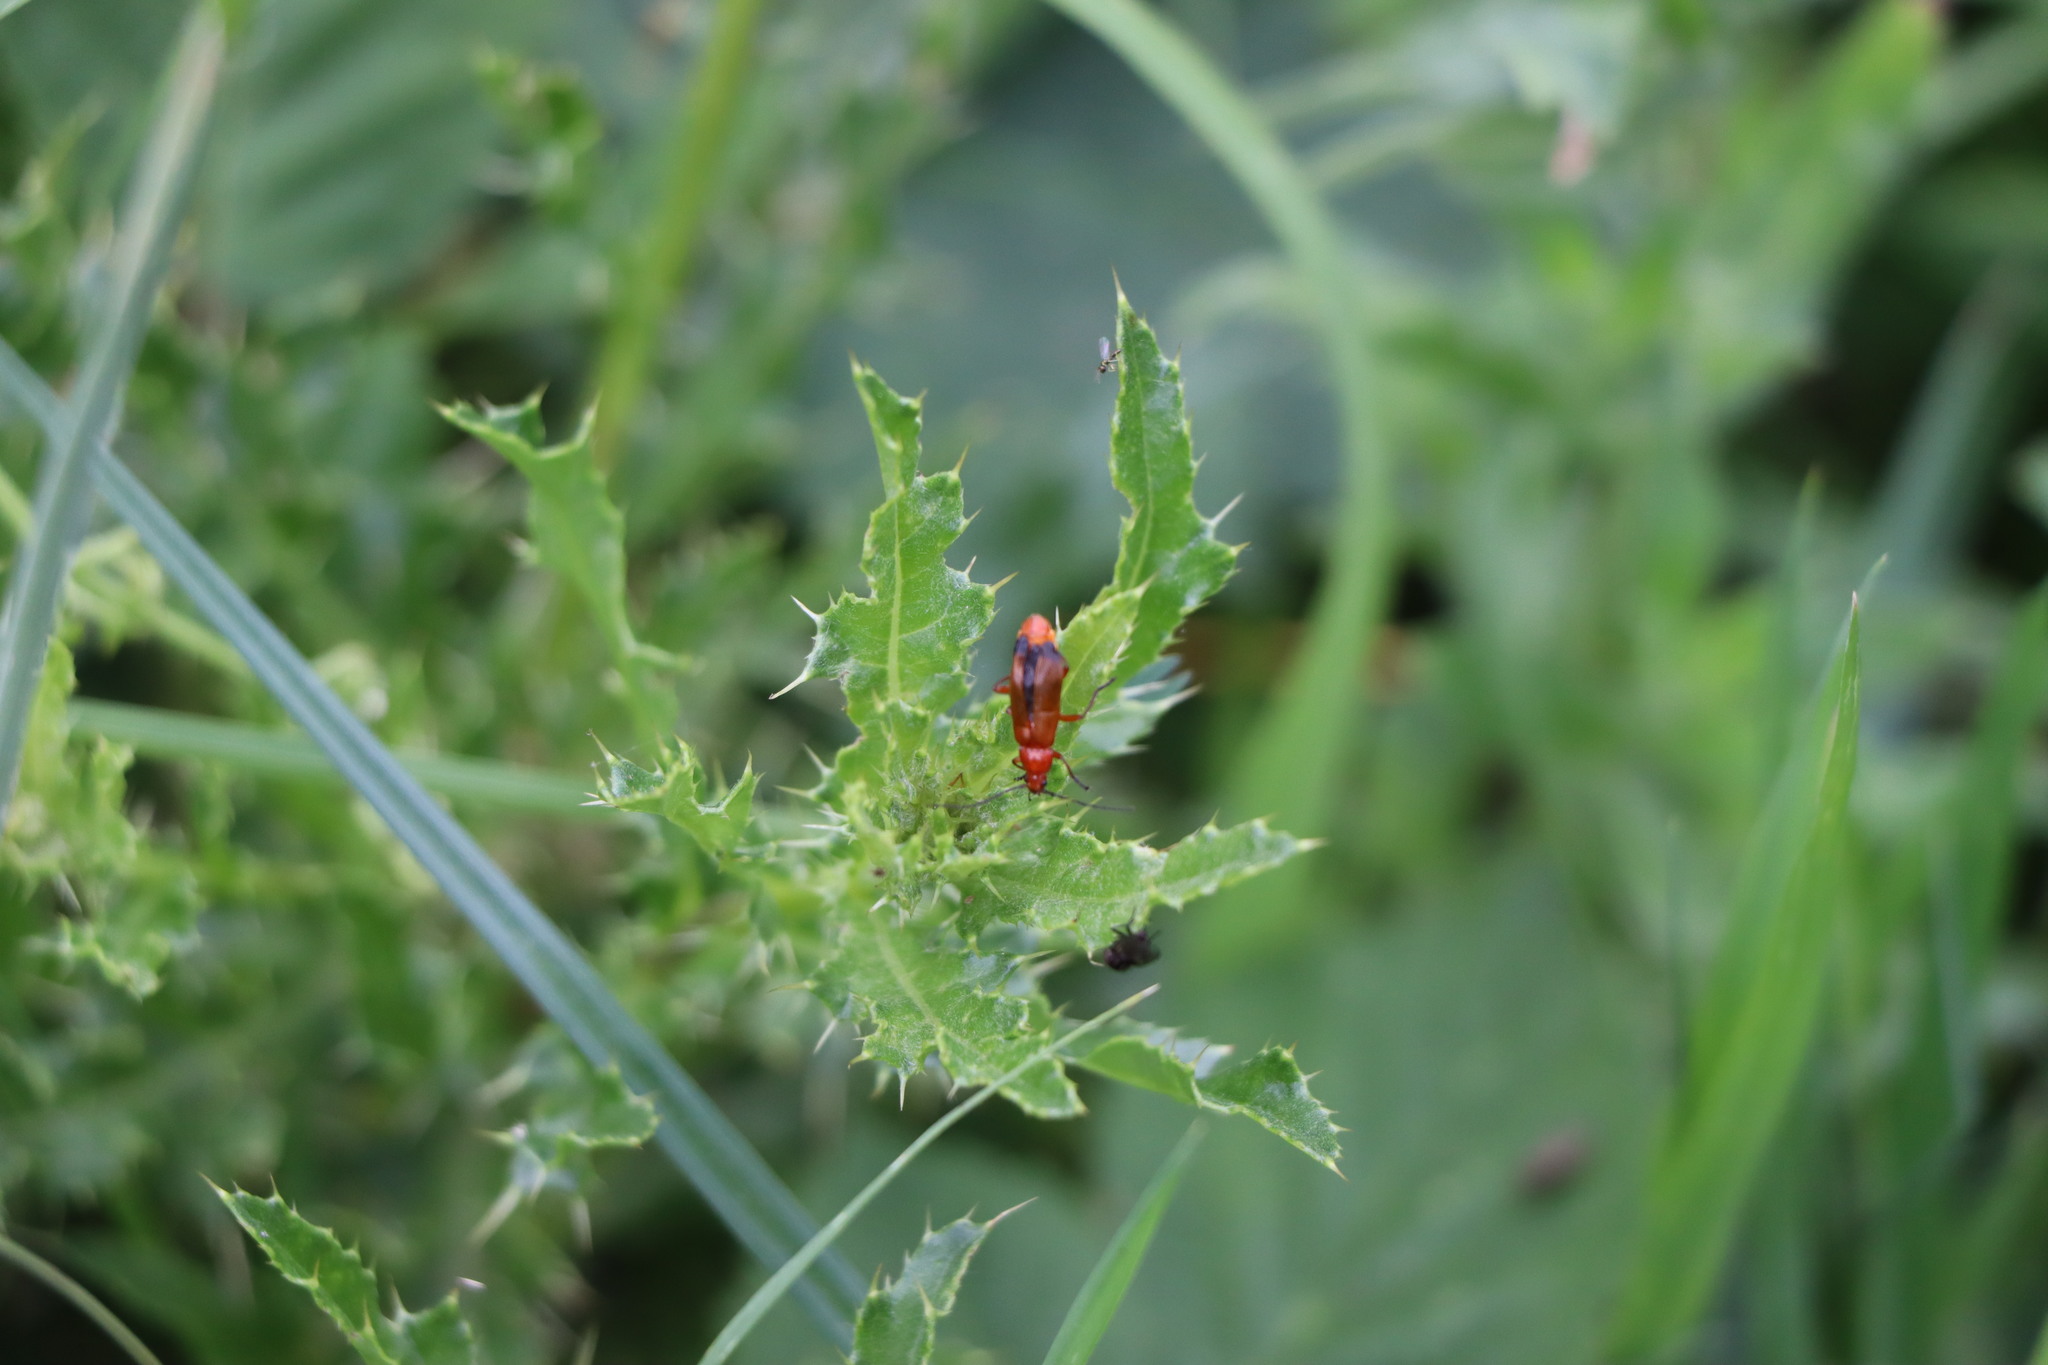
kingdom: Animalia
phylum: Arthropoda
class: Insecta
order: Coleoptera
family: Cantharidae
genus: Rhagonycha
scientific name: Rhagonycha fulva
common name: Common red soldier beetle
